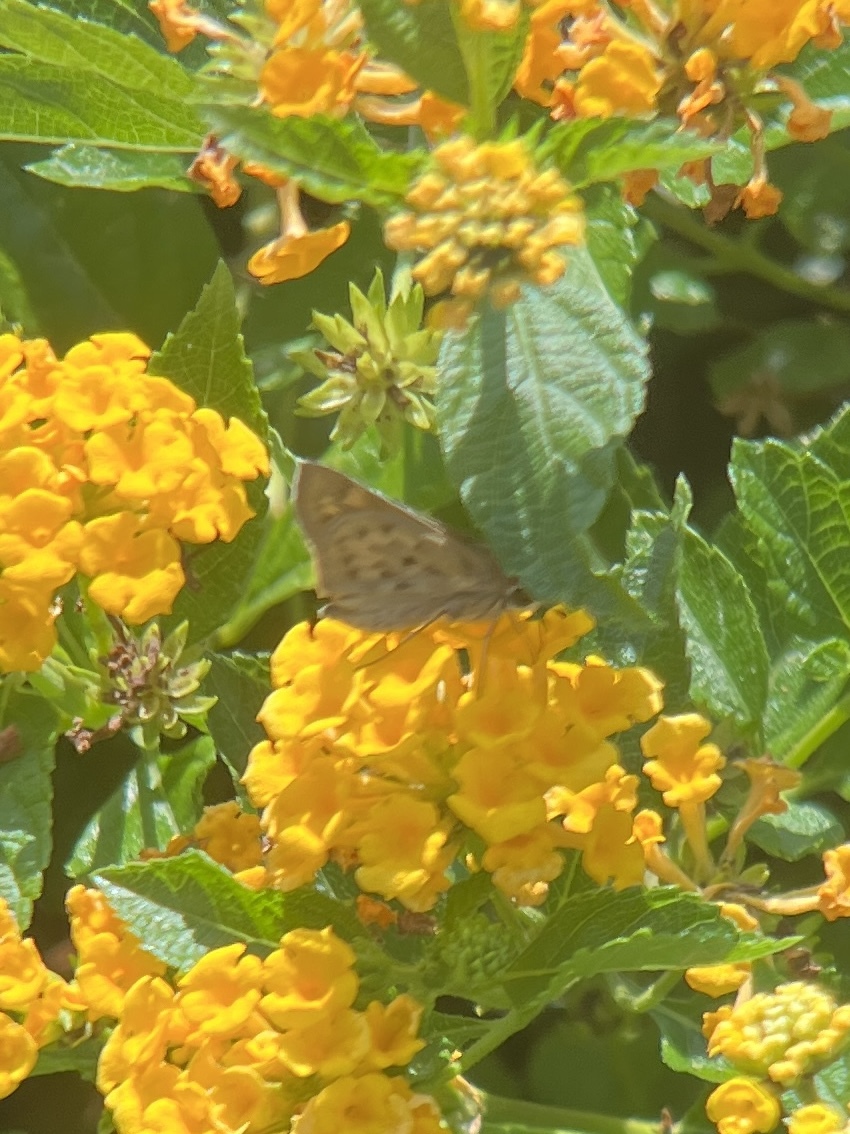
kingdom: Animalia
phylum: Arthropoda
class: Insecta
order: Lepidoptera
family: Hesperiidae
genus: Hylephila
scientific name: Hylephila phyleus
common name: Fiery skipper
